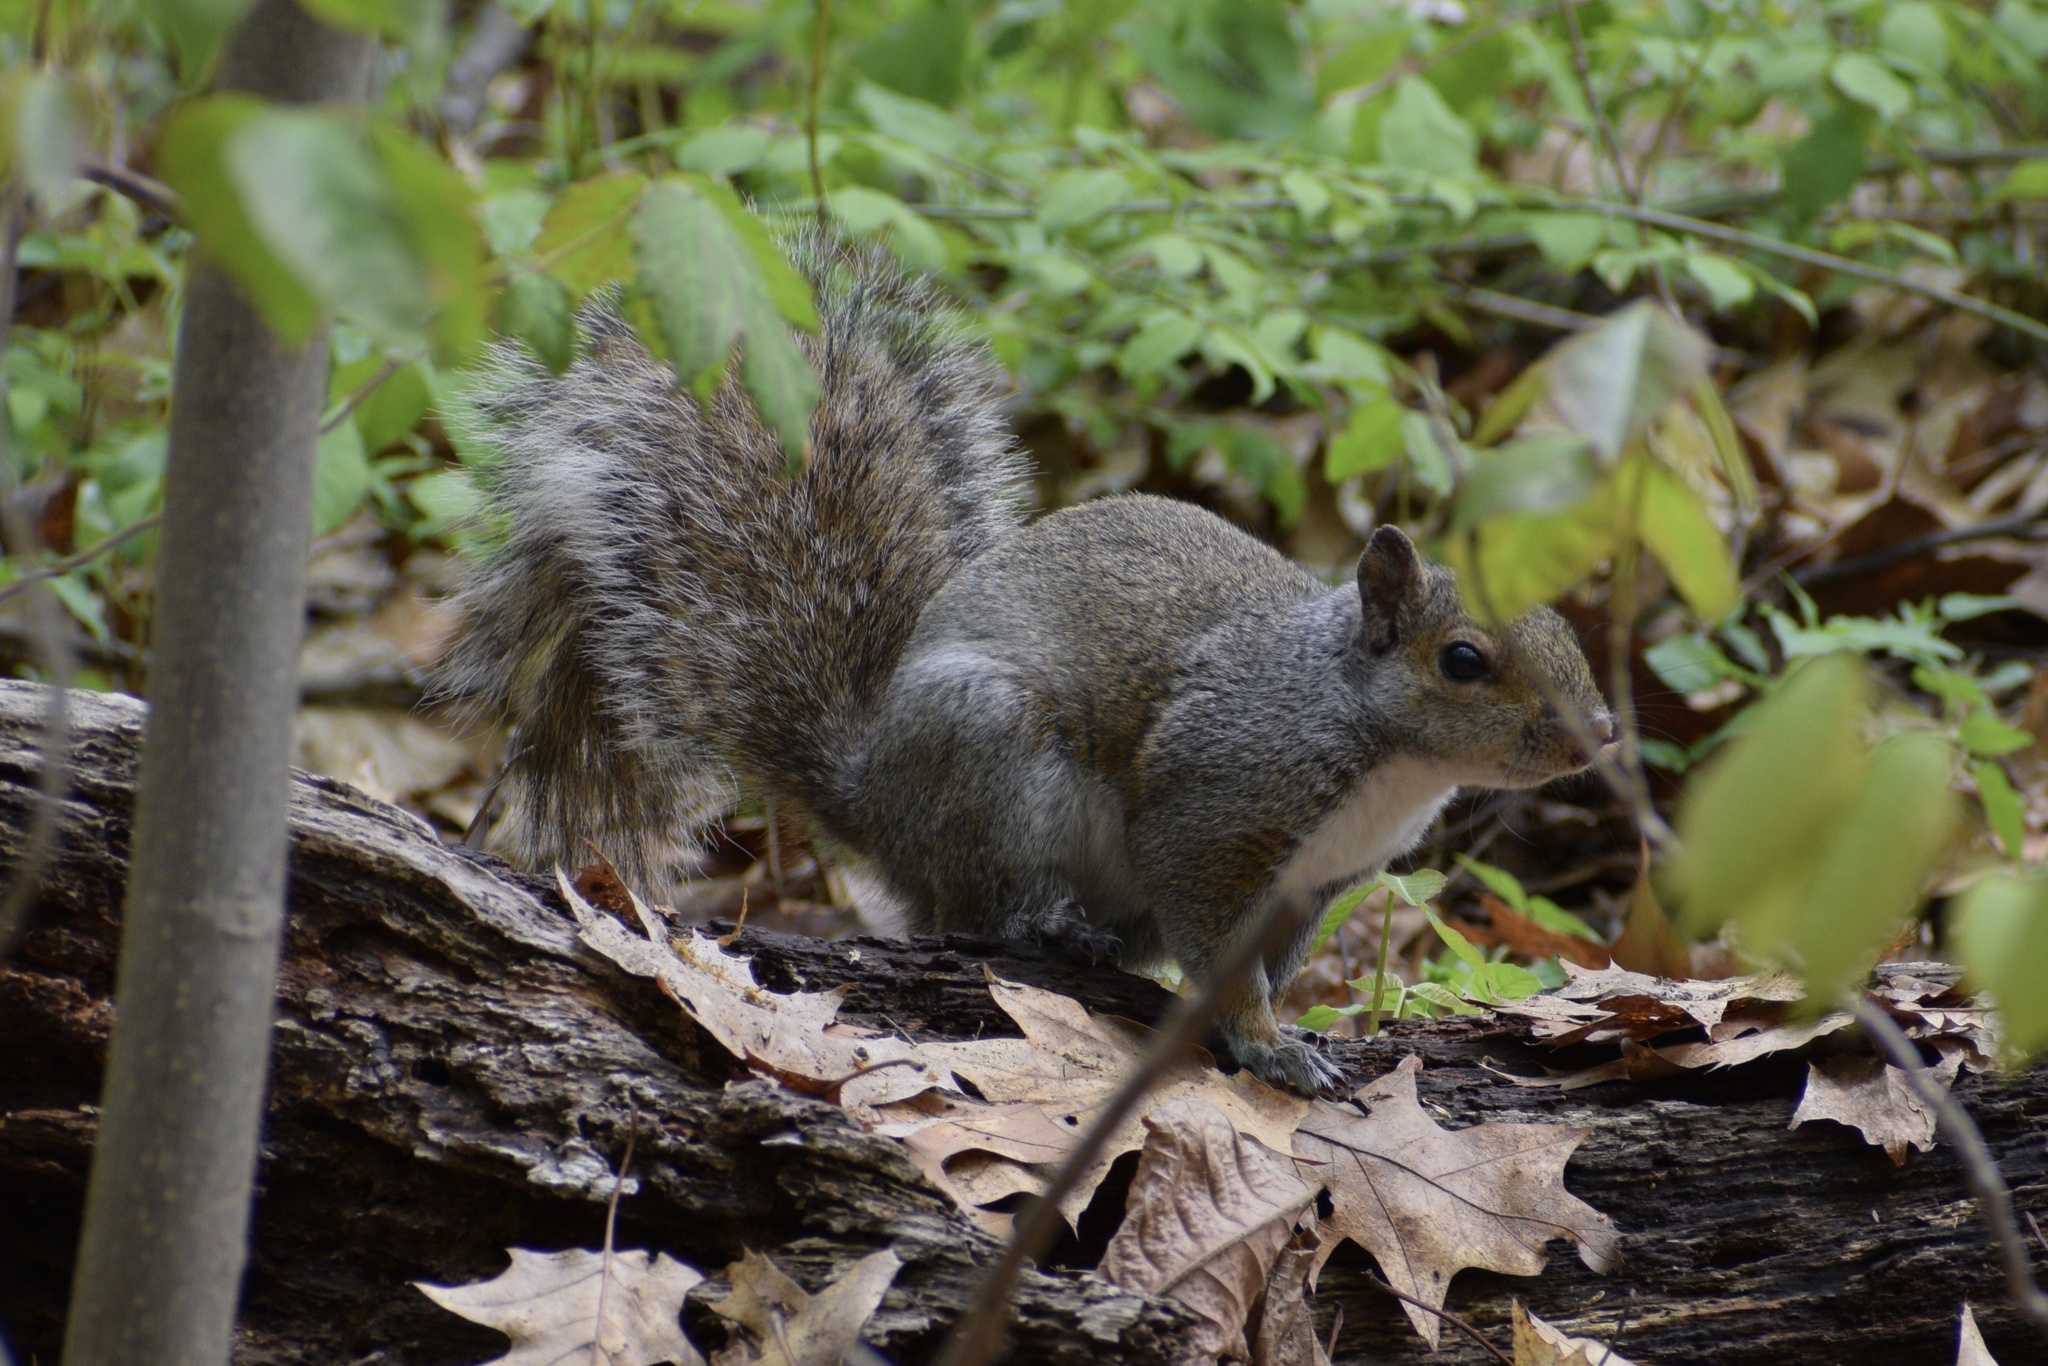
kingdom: Animalia
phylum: Chordata
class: Mammalia
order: Rodentia
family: Sciuridae
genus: Sciurus
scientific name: Sciurus carolinensis
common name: Eastern gray squirrel
